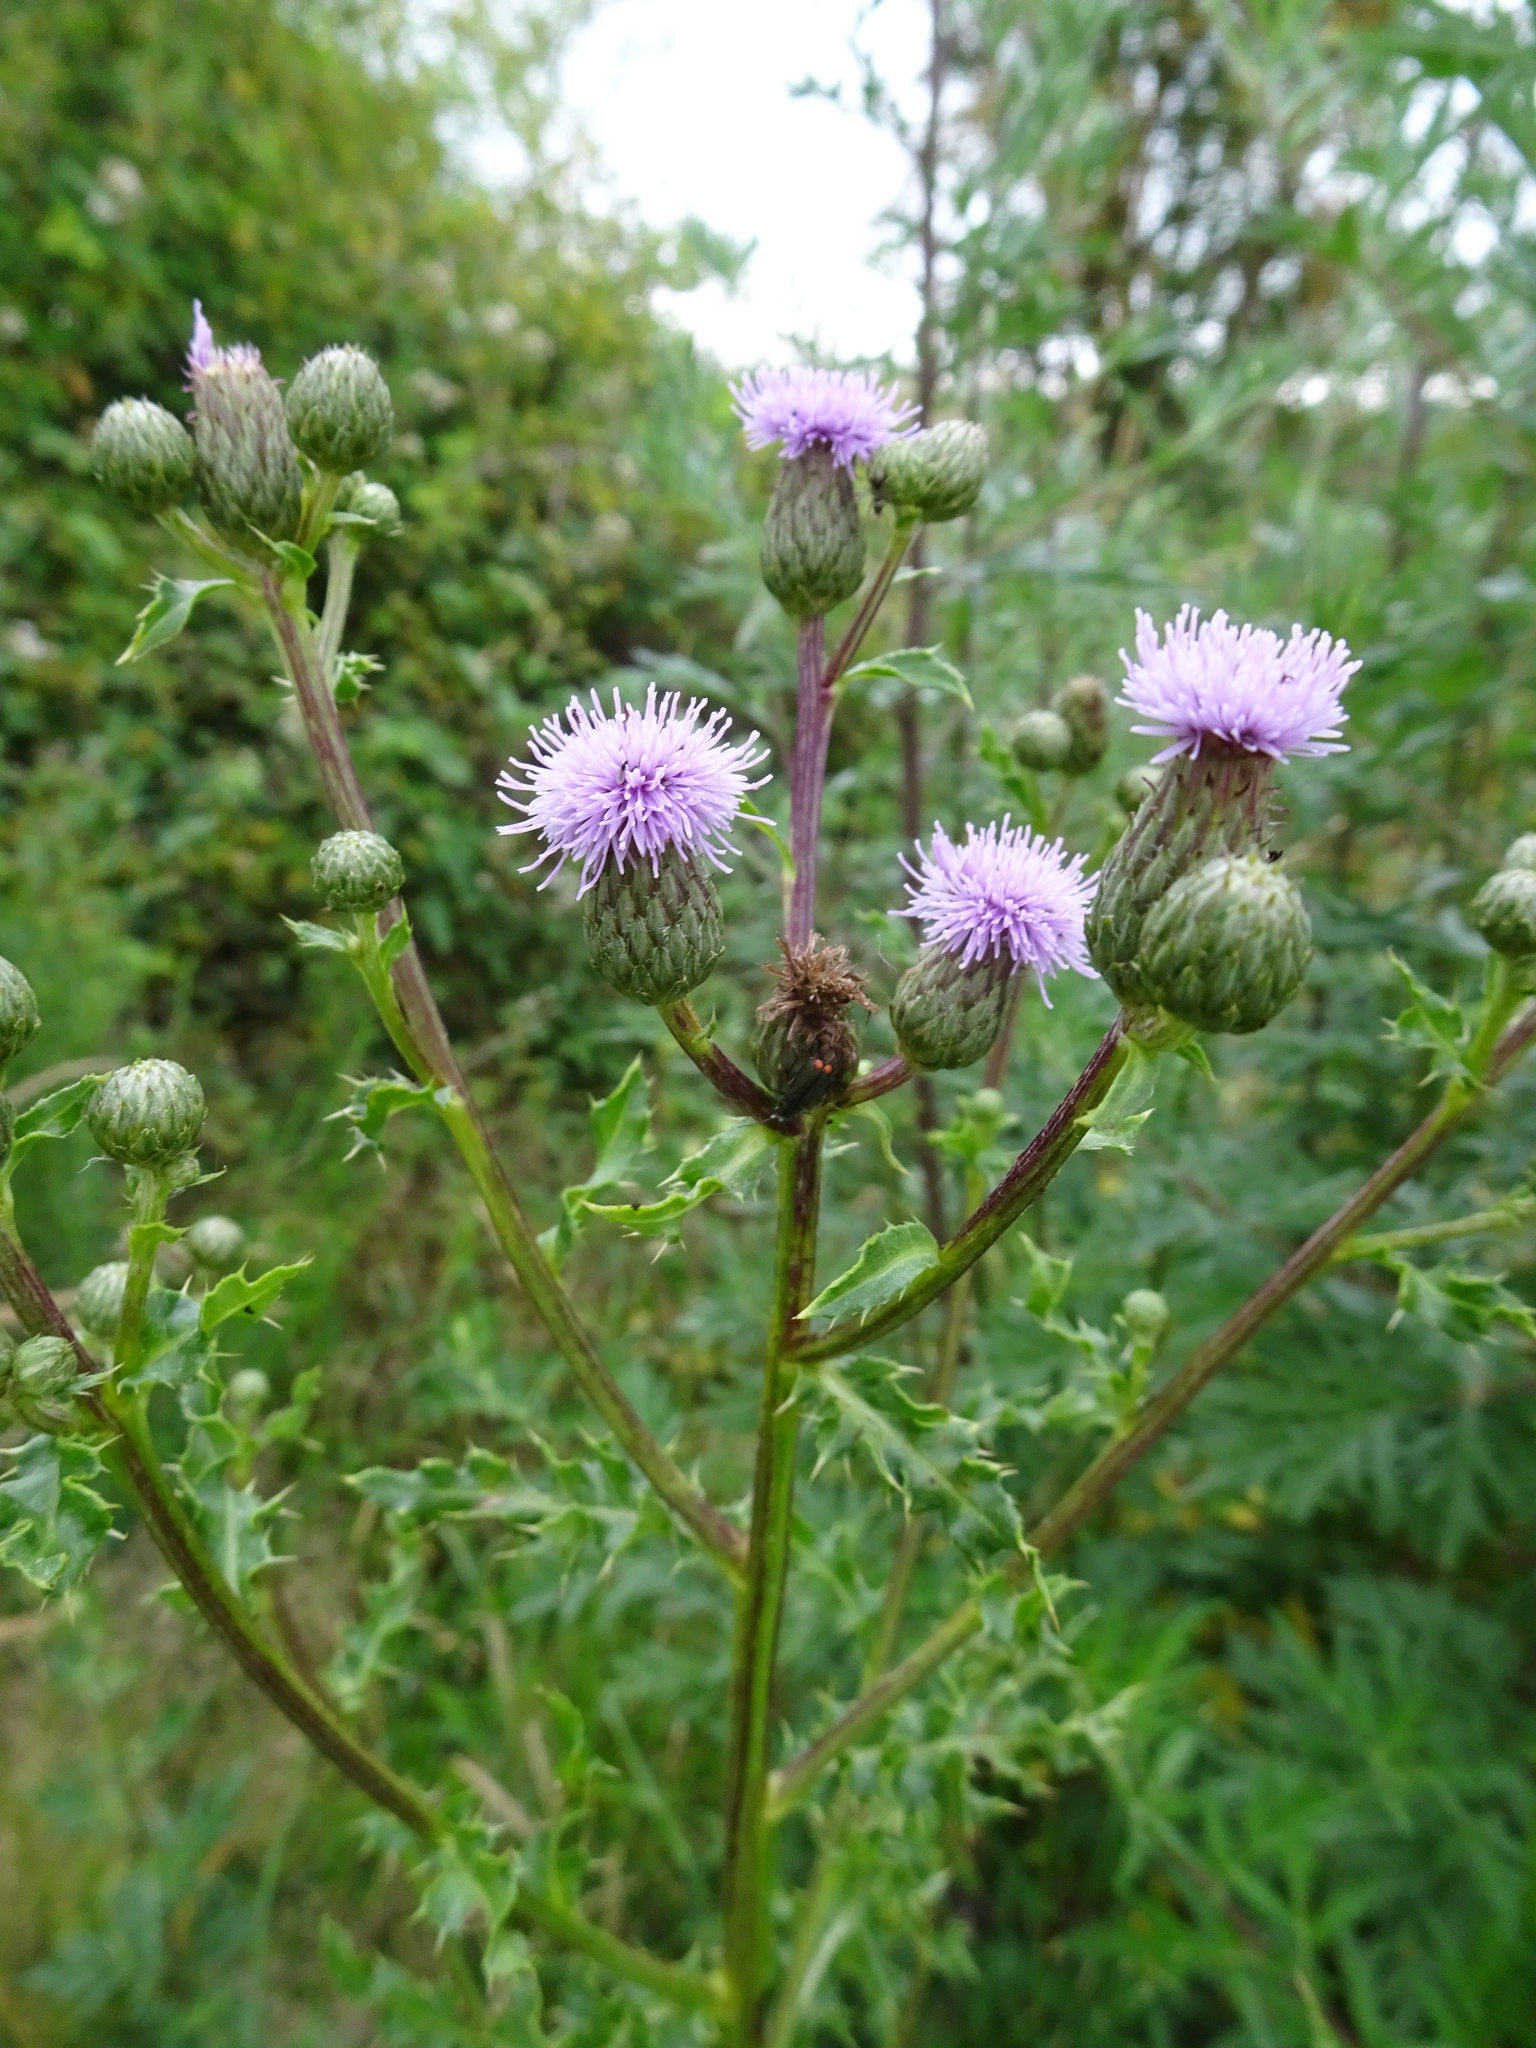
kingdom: Plantae
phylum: Tracheophyta
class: Magnoliopsida
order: Asterales
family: Asteraceae
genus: Cirsium
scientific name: Cirsium arvense
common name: Creeping thistle
